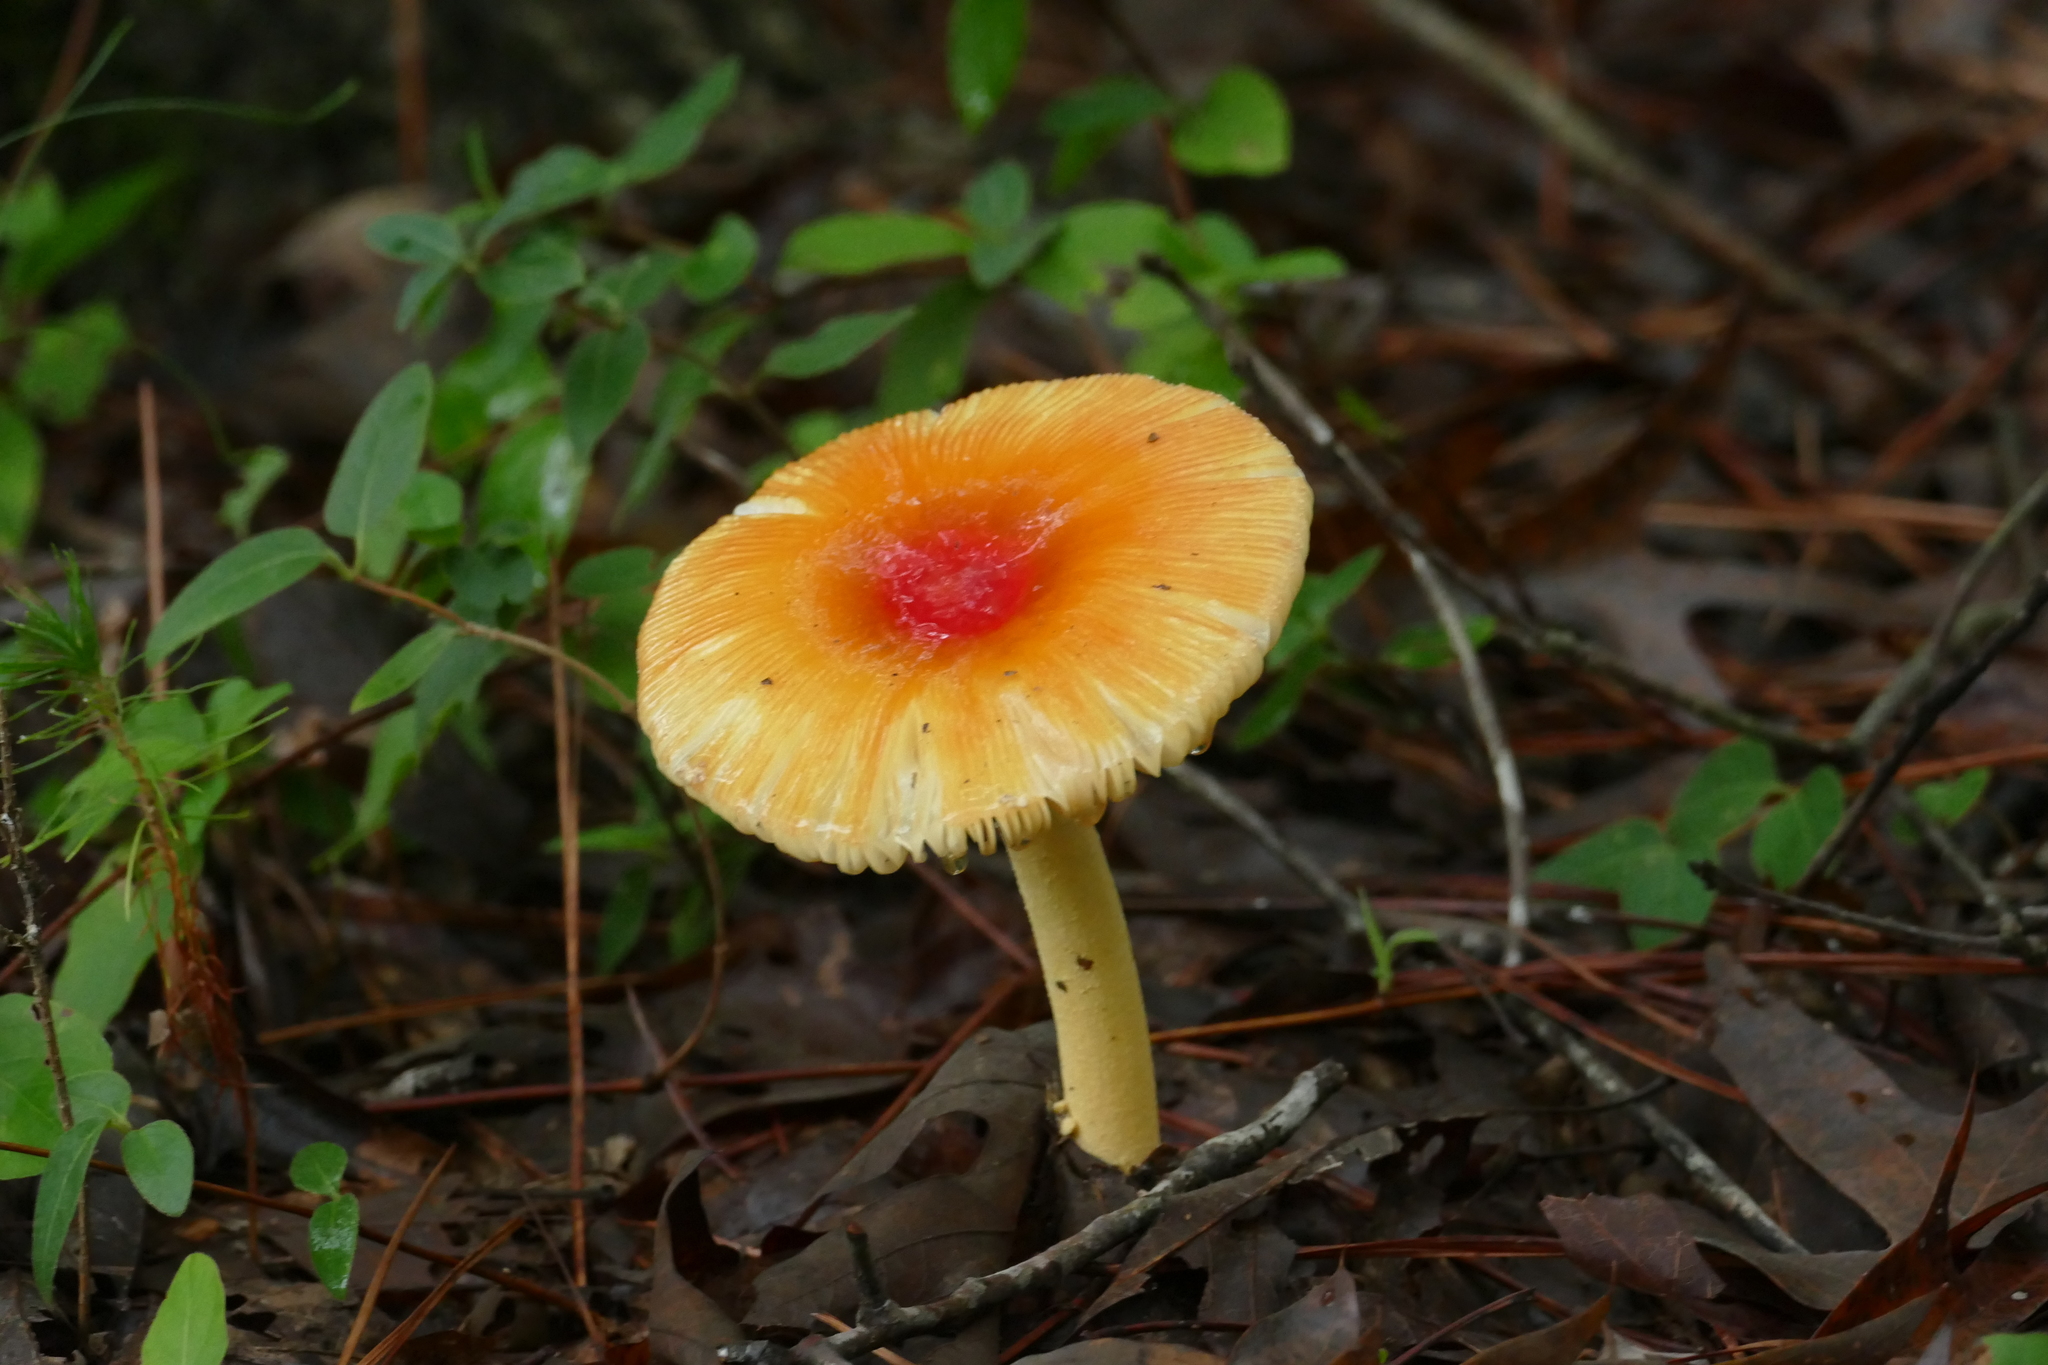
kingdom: Fungi
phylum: Basidiomycota
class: Agaricomycetes
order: Agaricales
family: Amanitaceae
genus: Amanita
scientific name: Amanita parcivolvata
